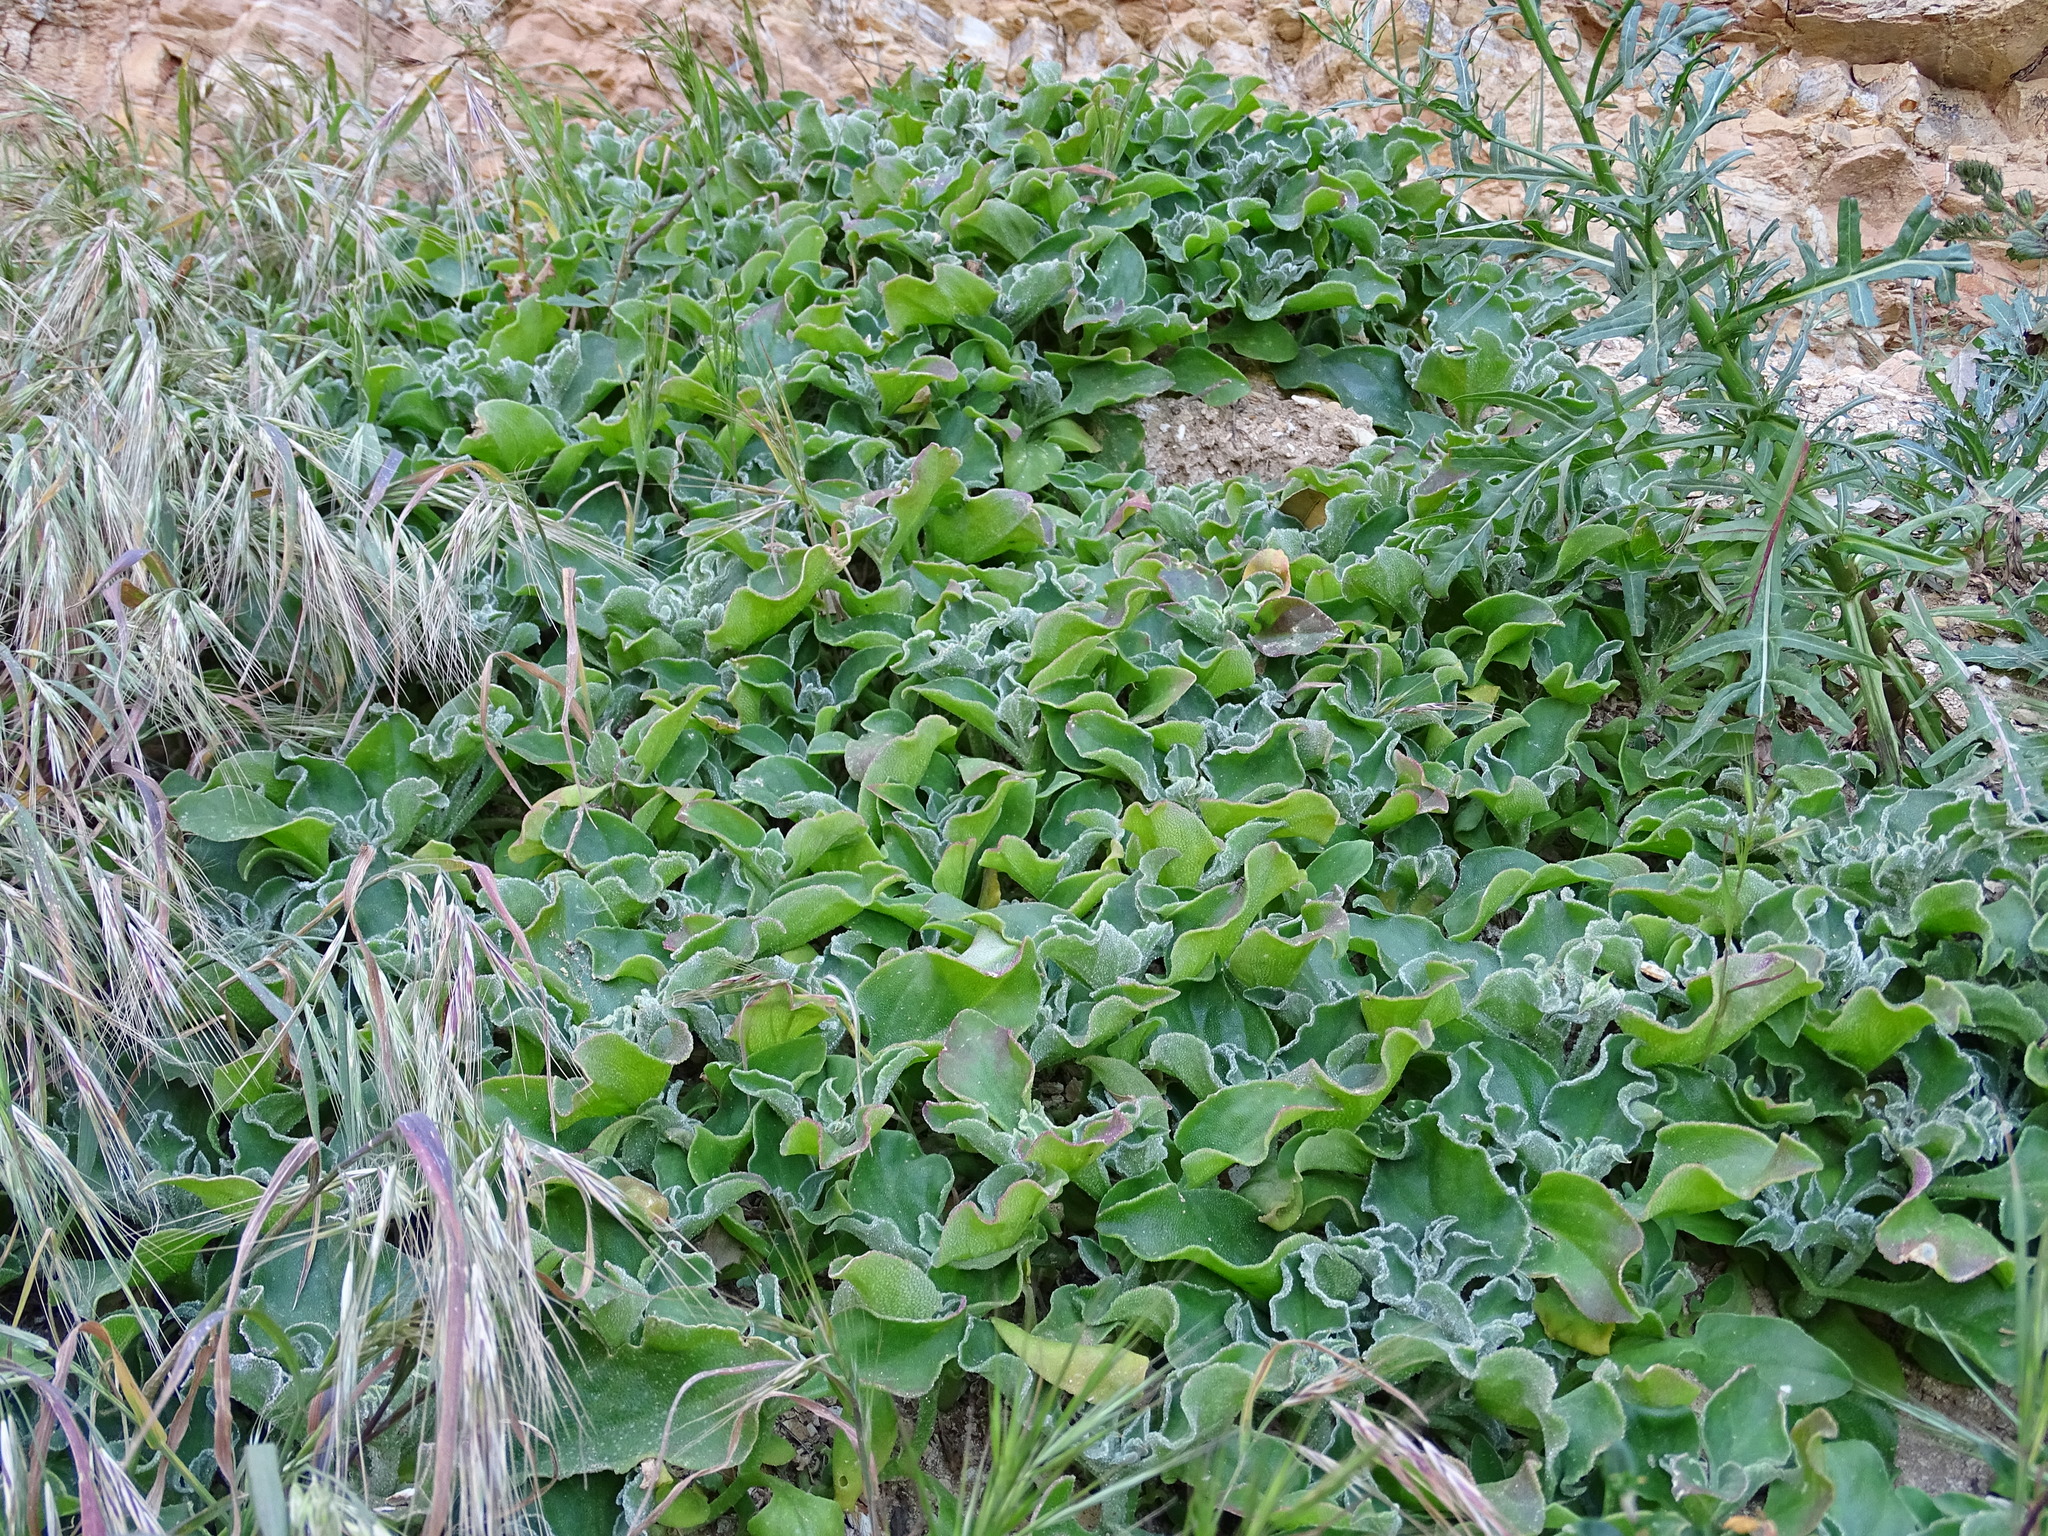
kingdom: Plantae
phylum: Tracheophyta
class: Magnoliopsida
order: Caryophyllales
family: Aizoaceae
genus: Mesembryanthemum
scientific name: Mesembryanthemum crystallinum
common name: Common iceplant
